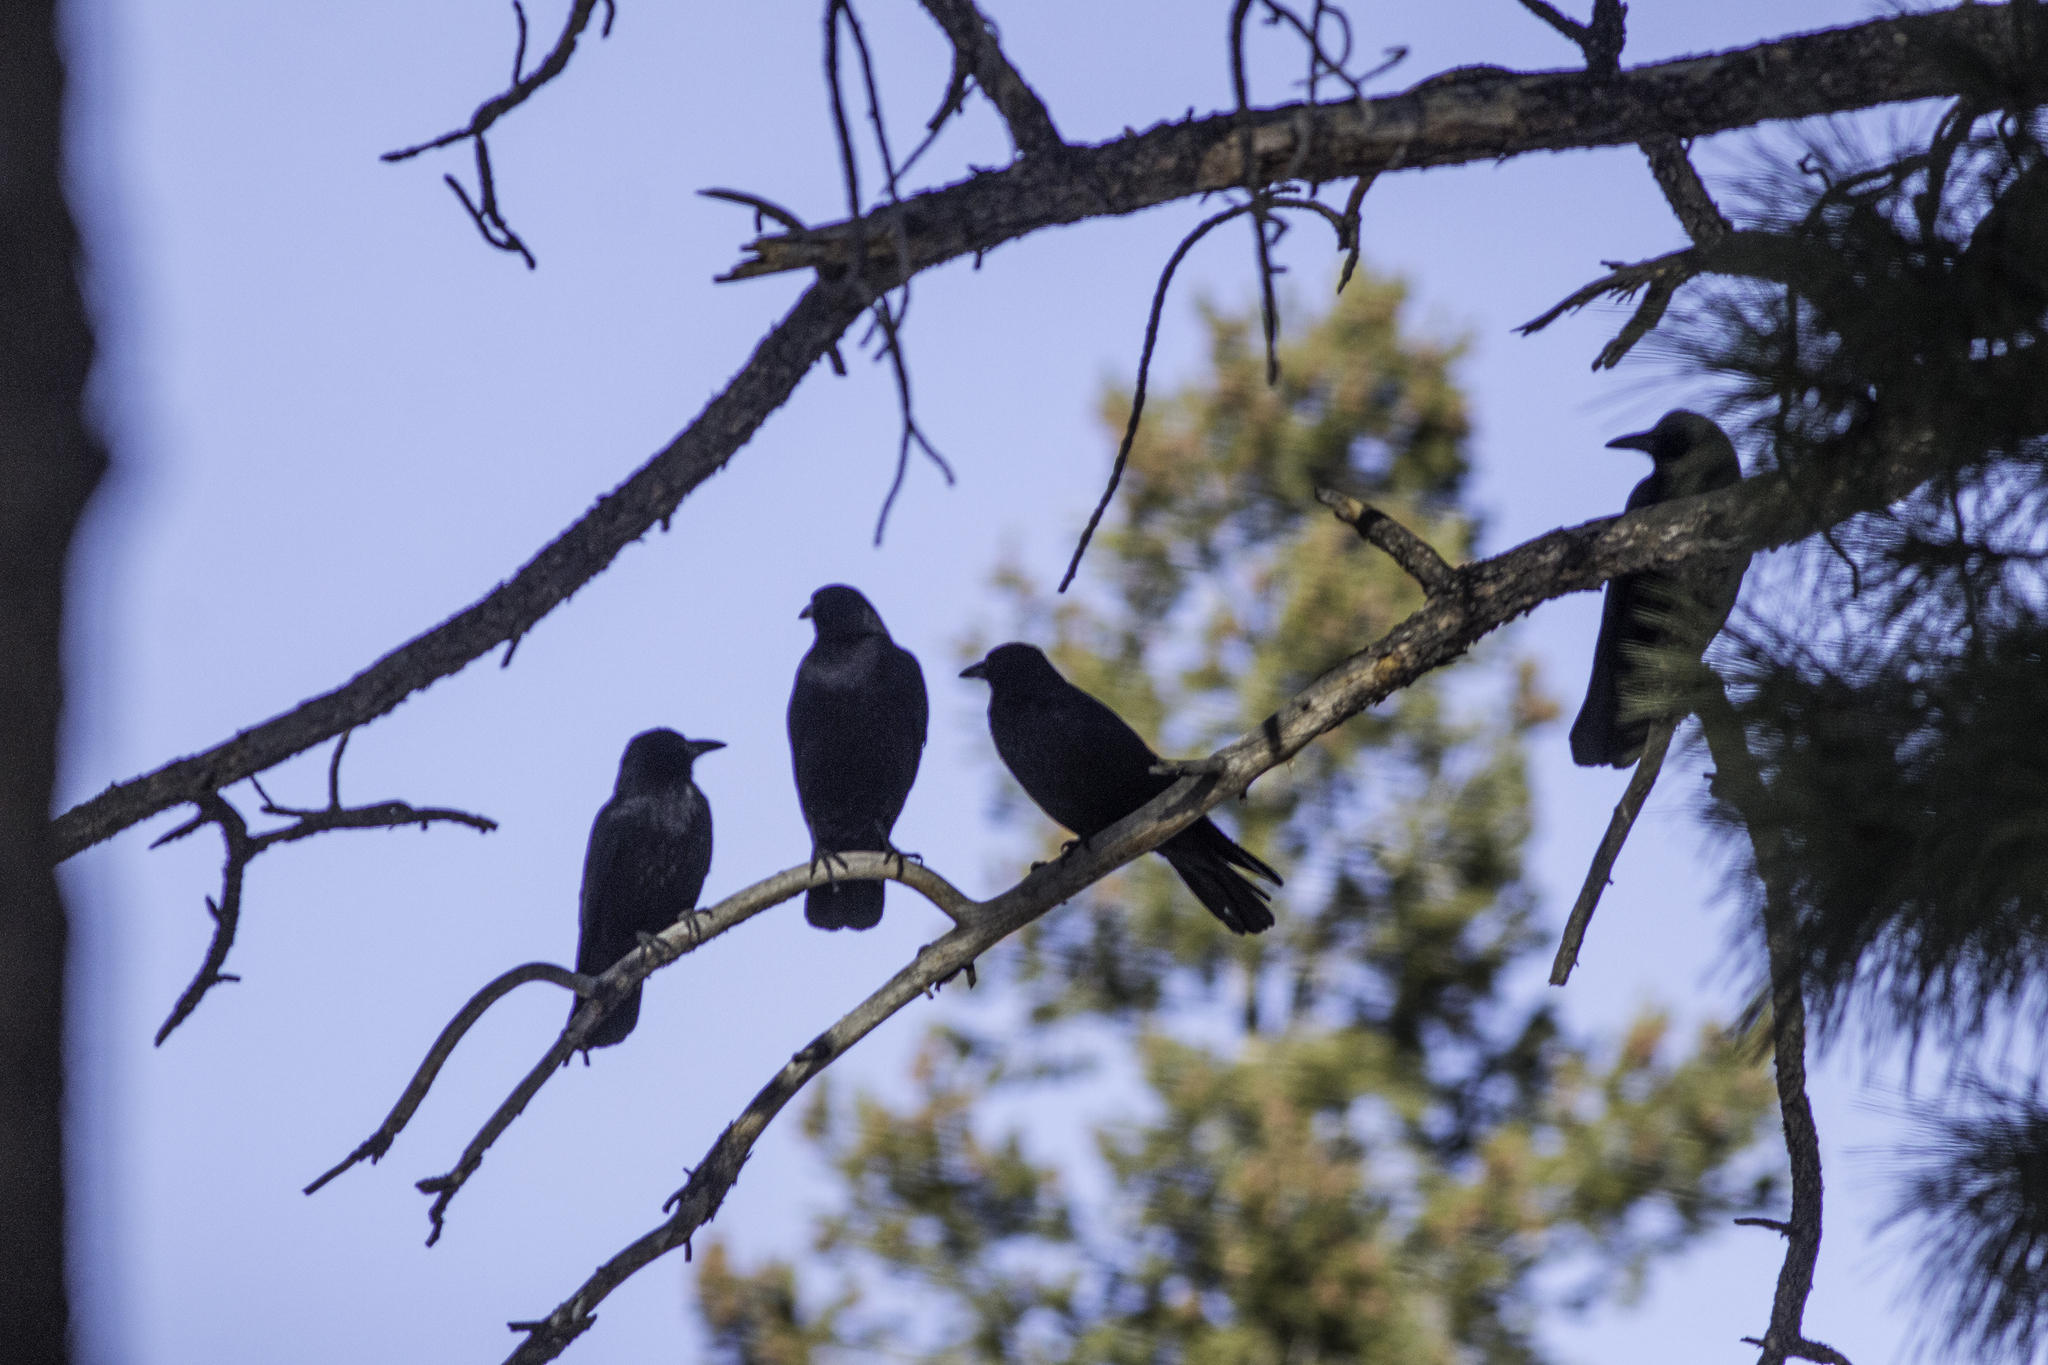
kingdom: Animalia
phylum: Chordata
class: Aves
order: Passeriformes
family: Corvidae
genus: Corvus
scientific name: Corvus brachyrhynchos
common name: American crow
